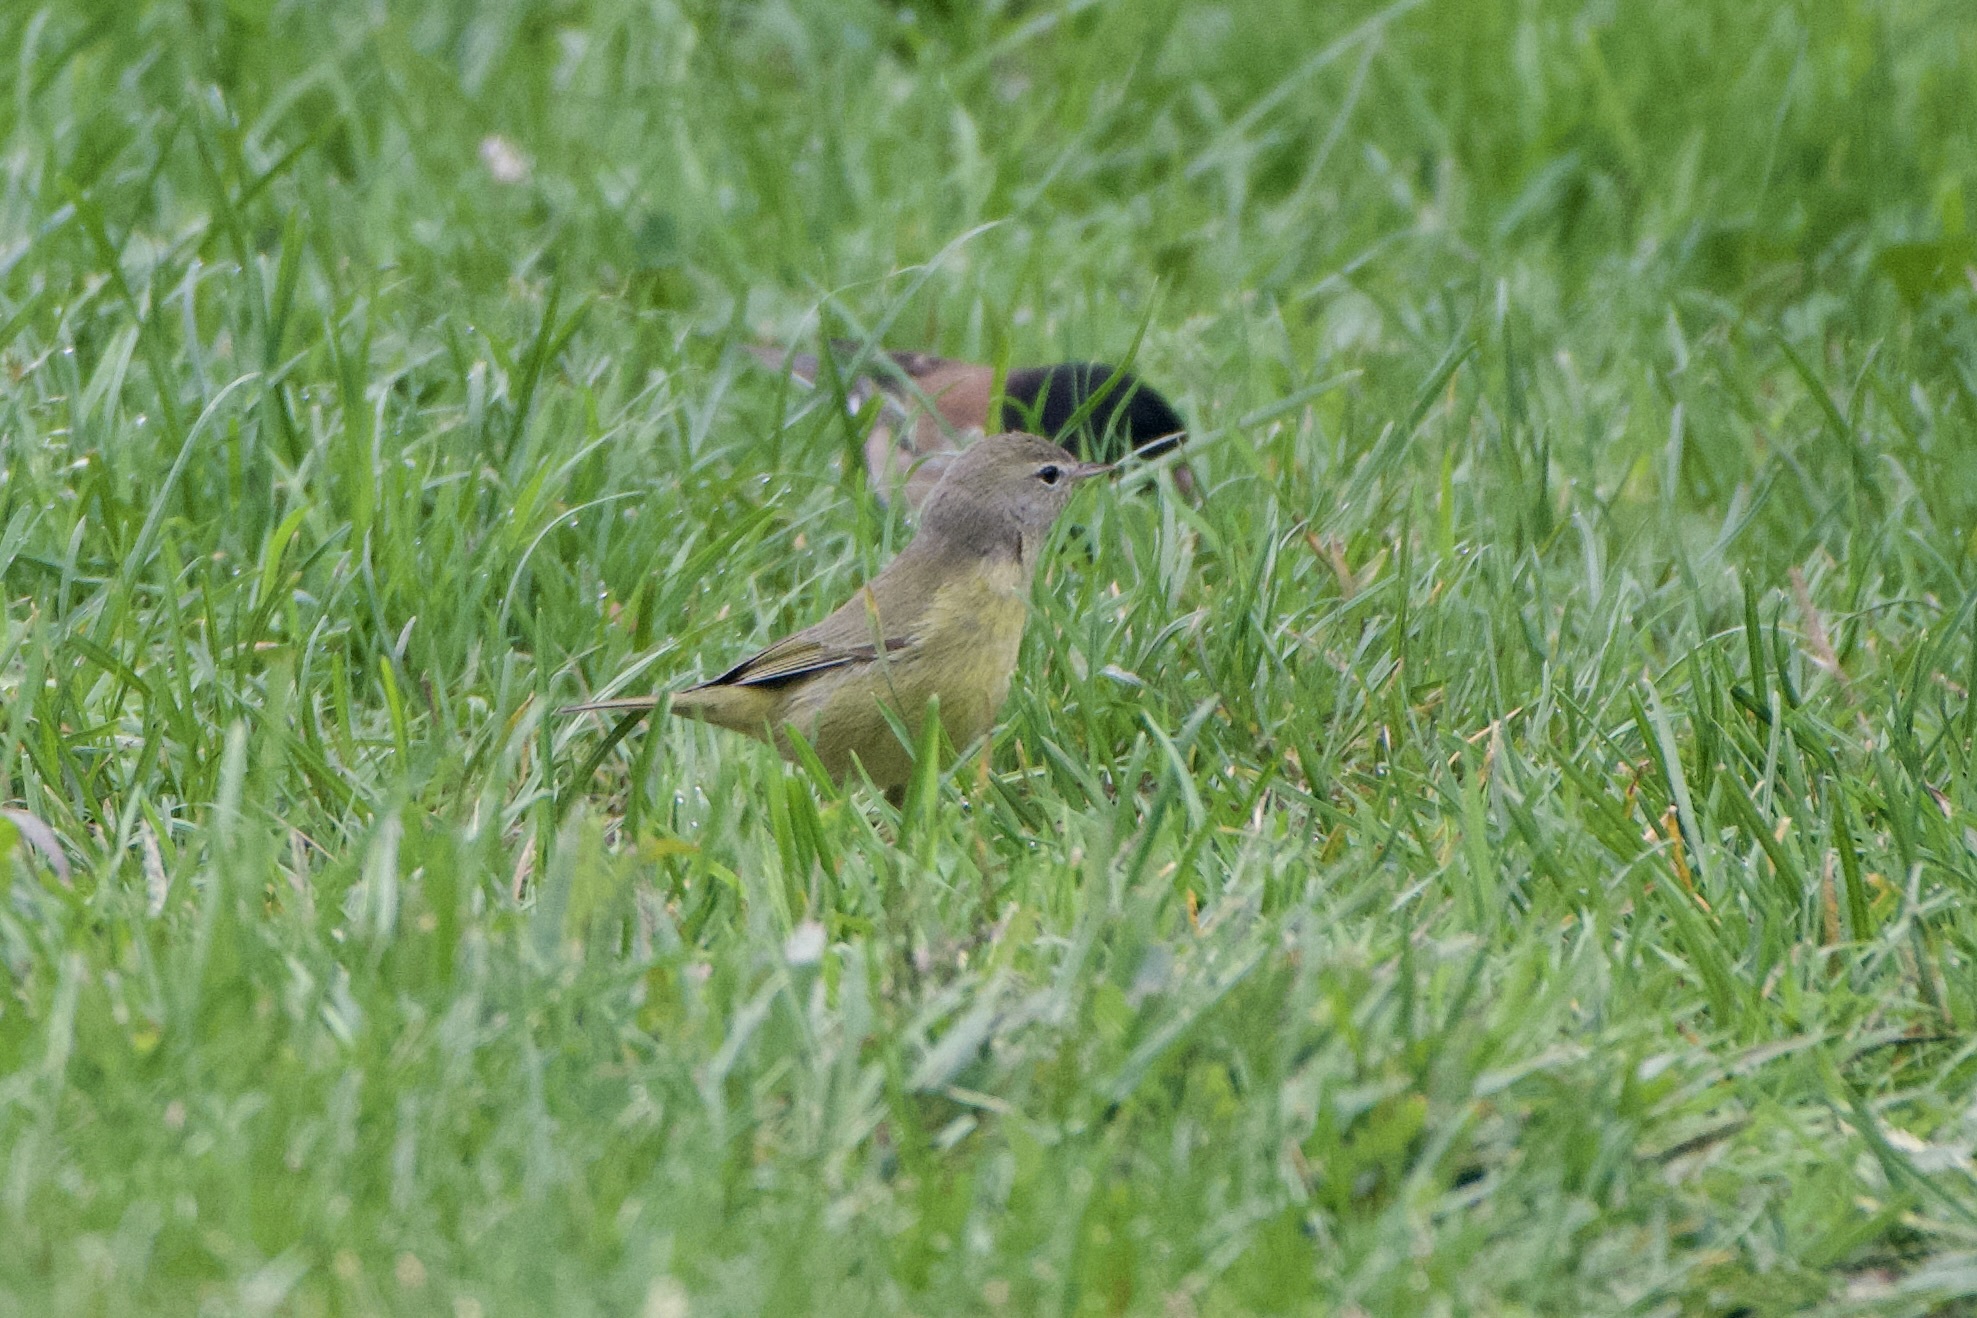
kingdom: Animalia
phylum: Chordata
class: Aves
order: Passeriformes
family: Parulidae
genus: Leiothlypis
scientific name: Leiothlypis celata
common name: Orange-crowned warbler
